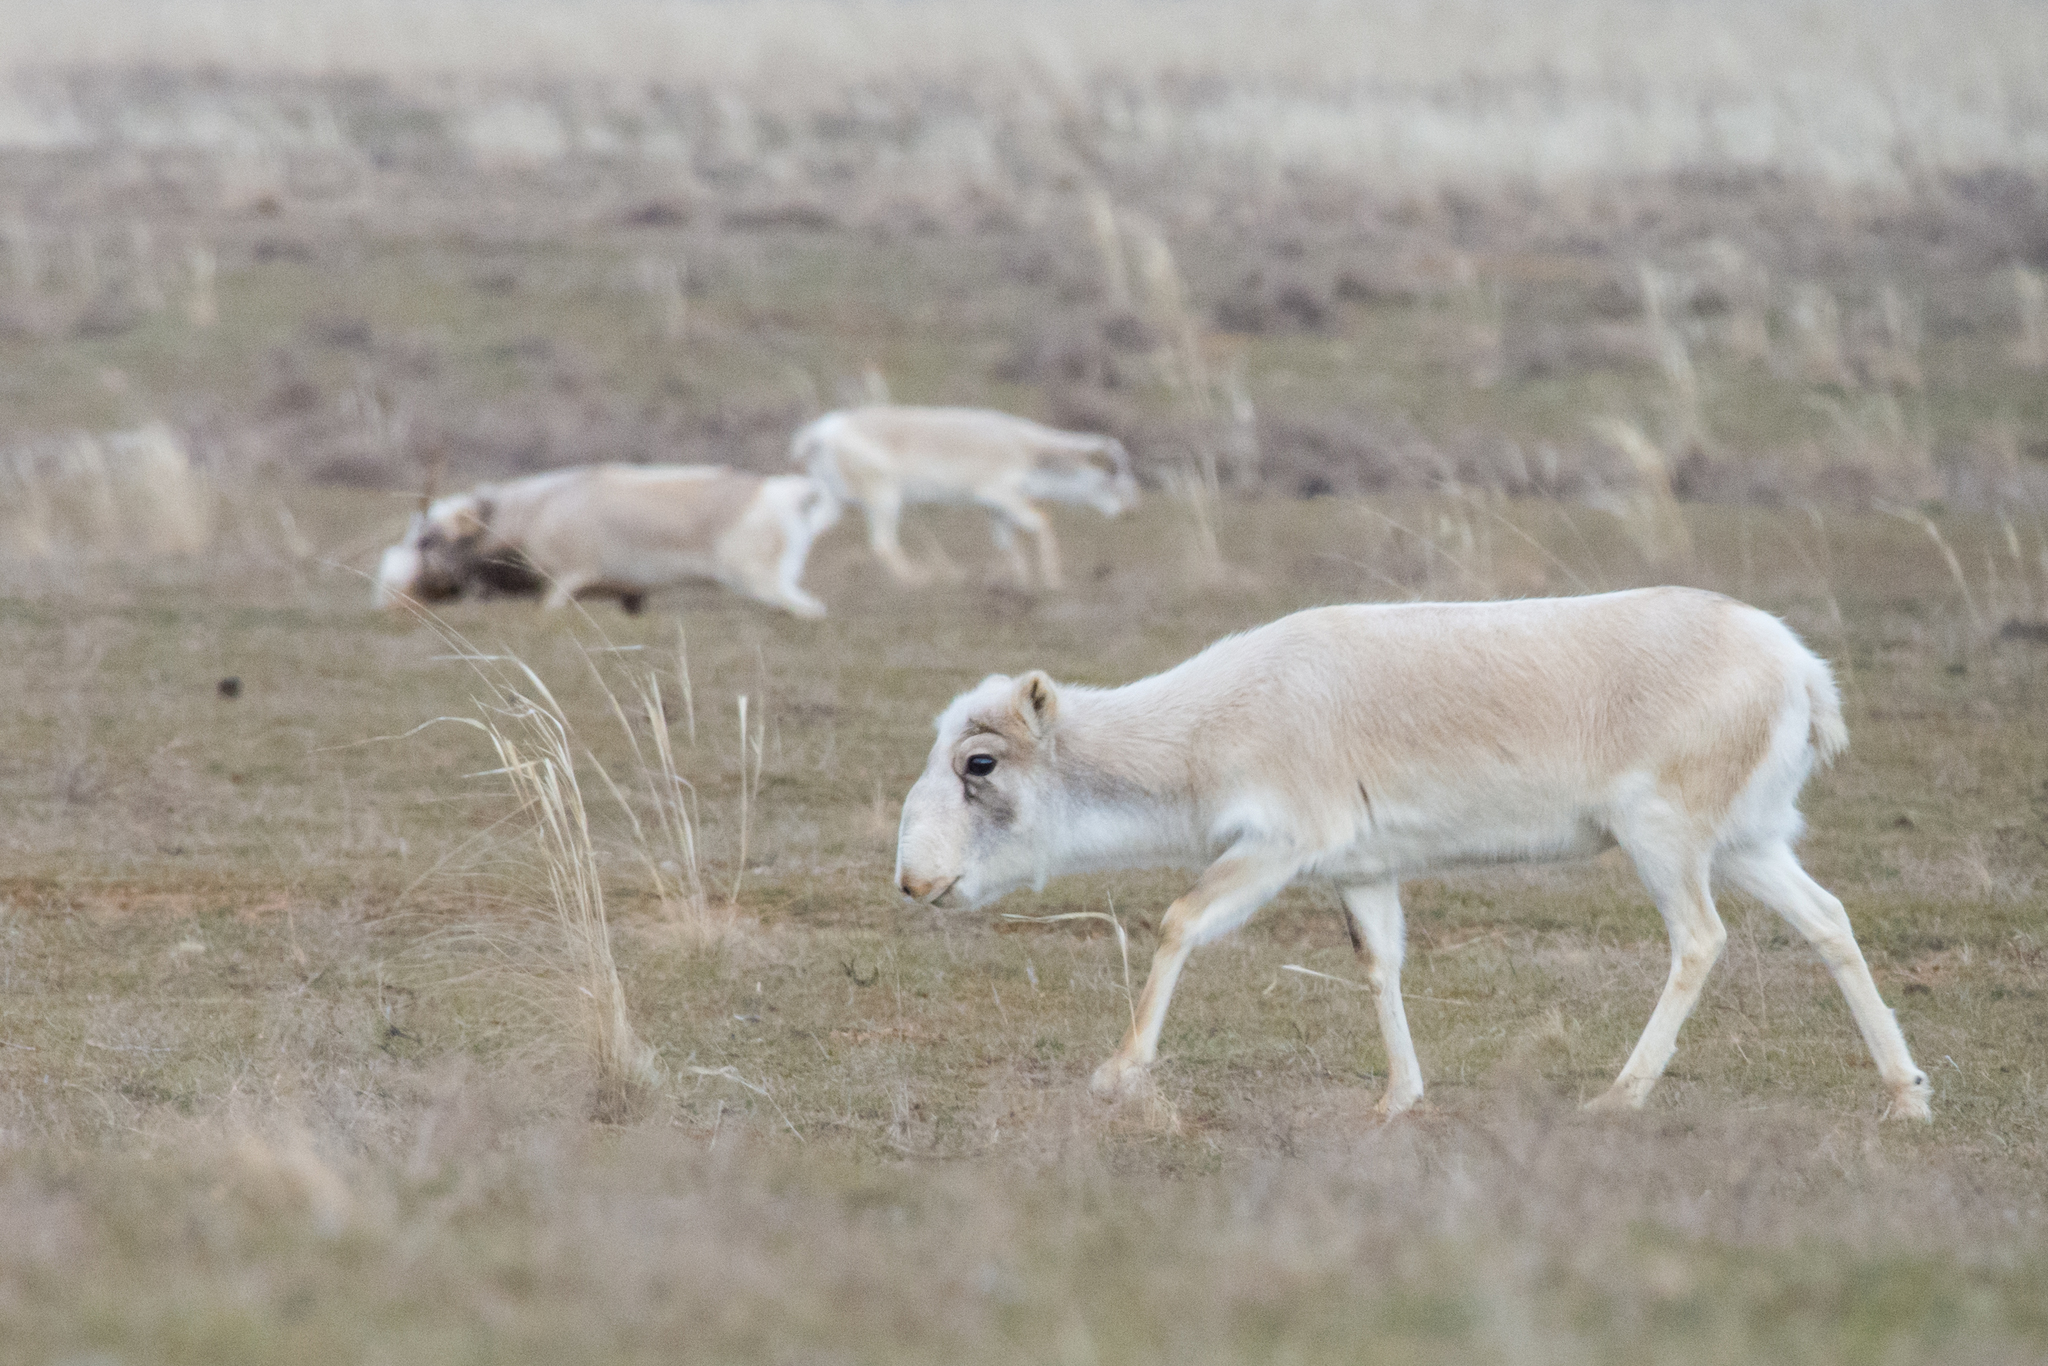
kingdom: Animalia
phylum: Chordata
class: Mammalia
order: Artiodactyla
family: Bovidae
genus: Saiga
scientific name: Saiga tatarica
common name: Saiga
